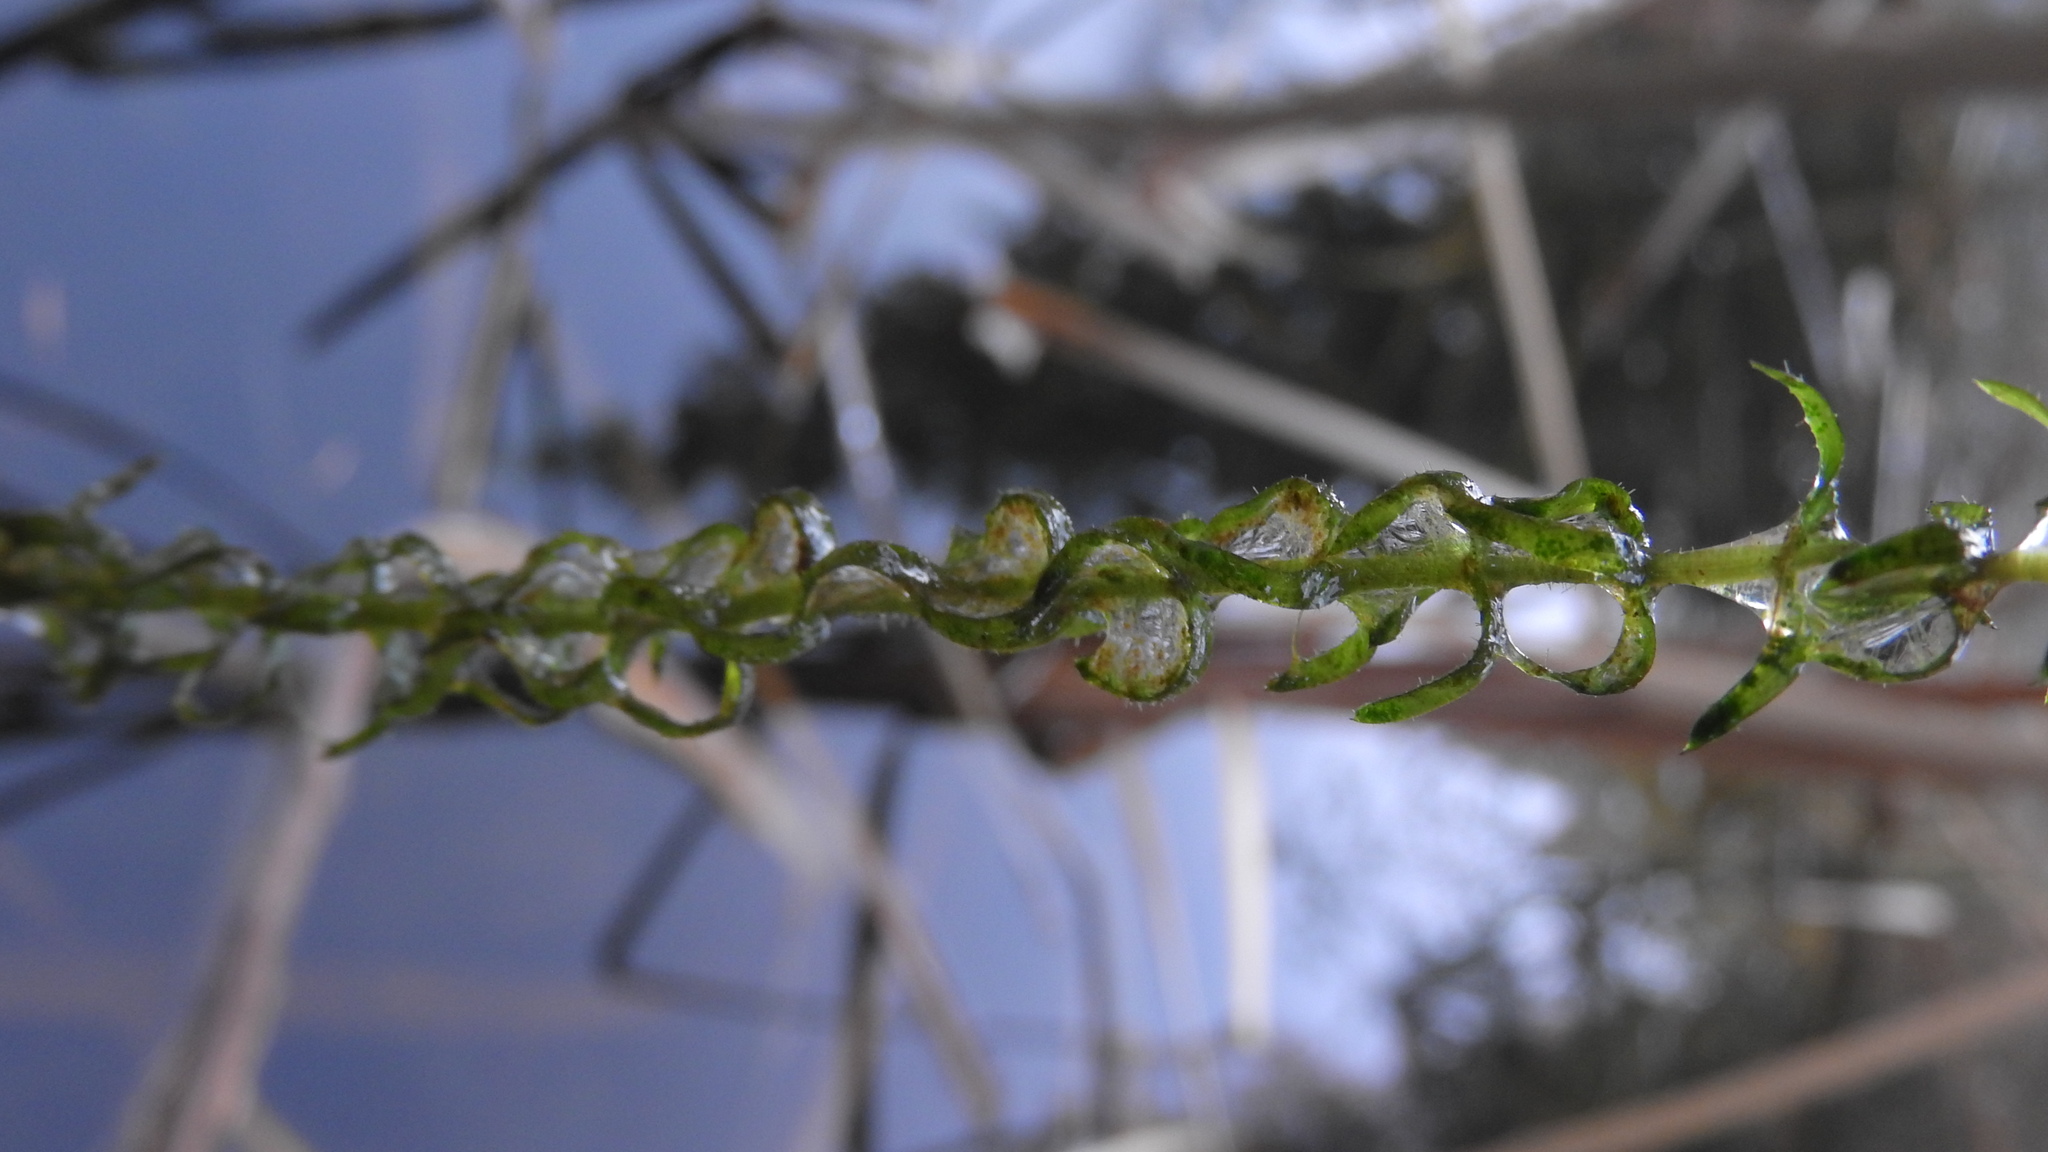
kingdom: Plantae
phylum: Tracheophyta
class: Liliopsida
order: Alismatales
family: Hydrocharitaceae
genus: Elodea
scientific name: Elodea nuttallii
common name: Nuttall's waterweed
